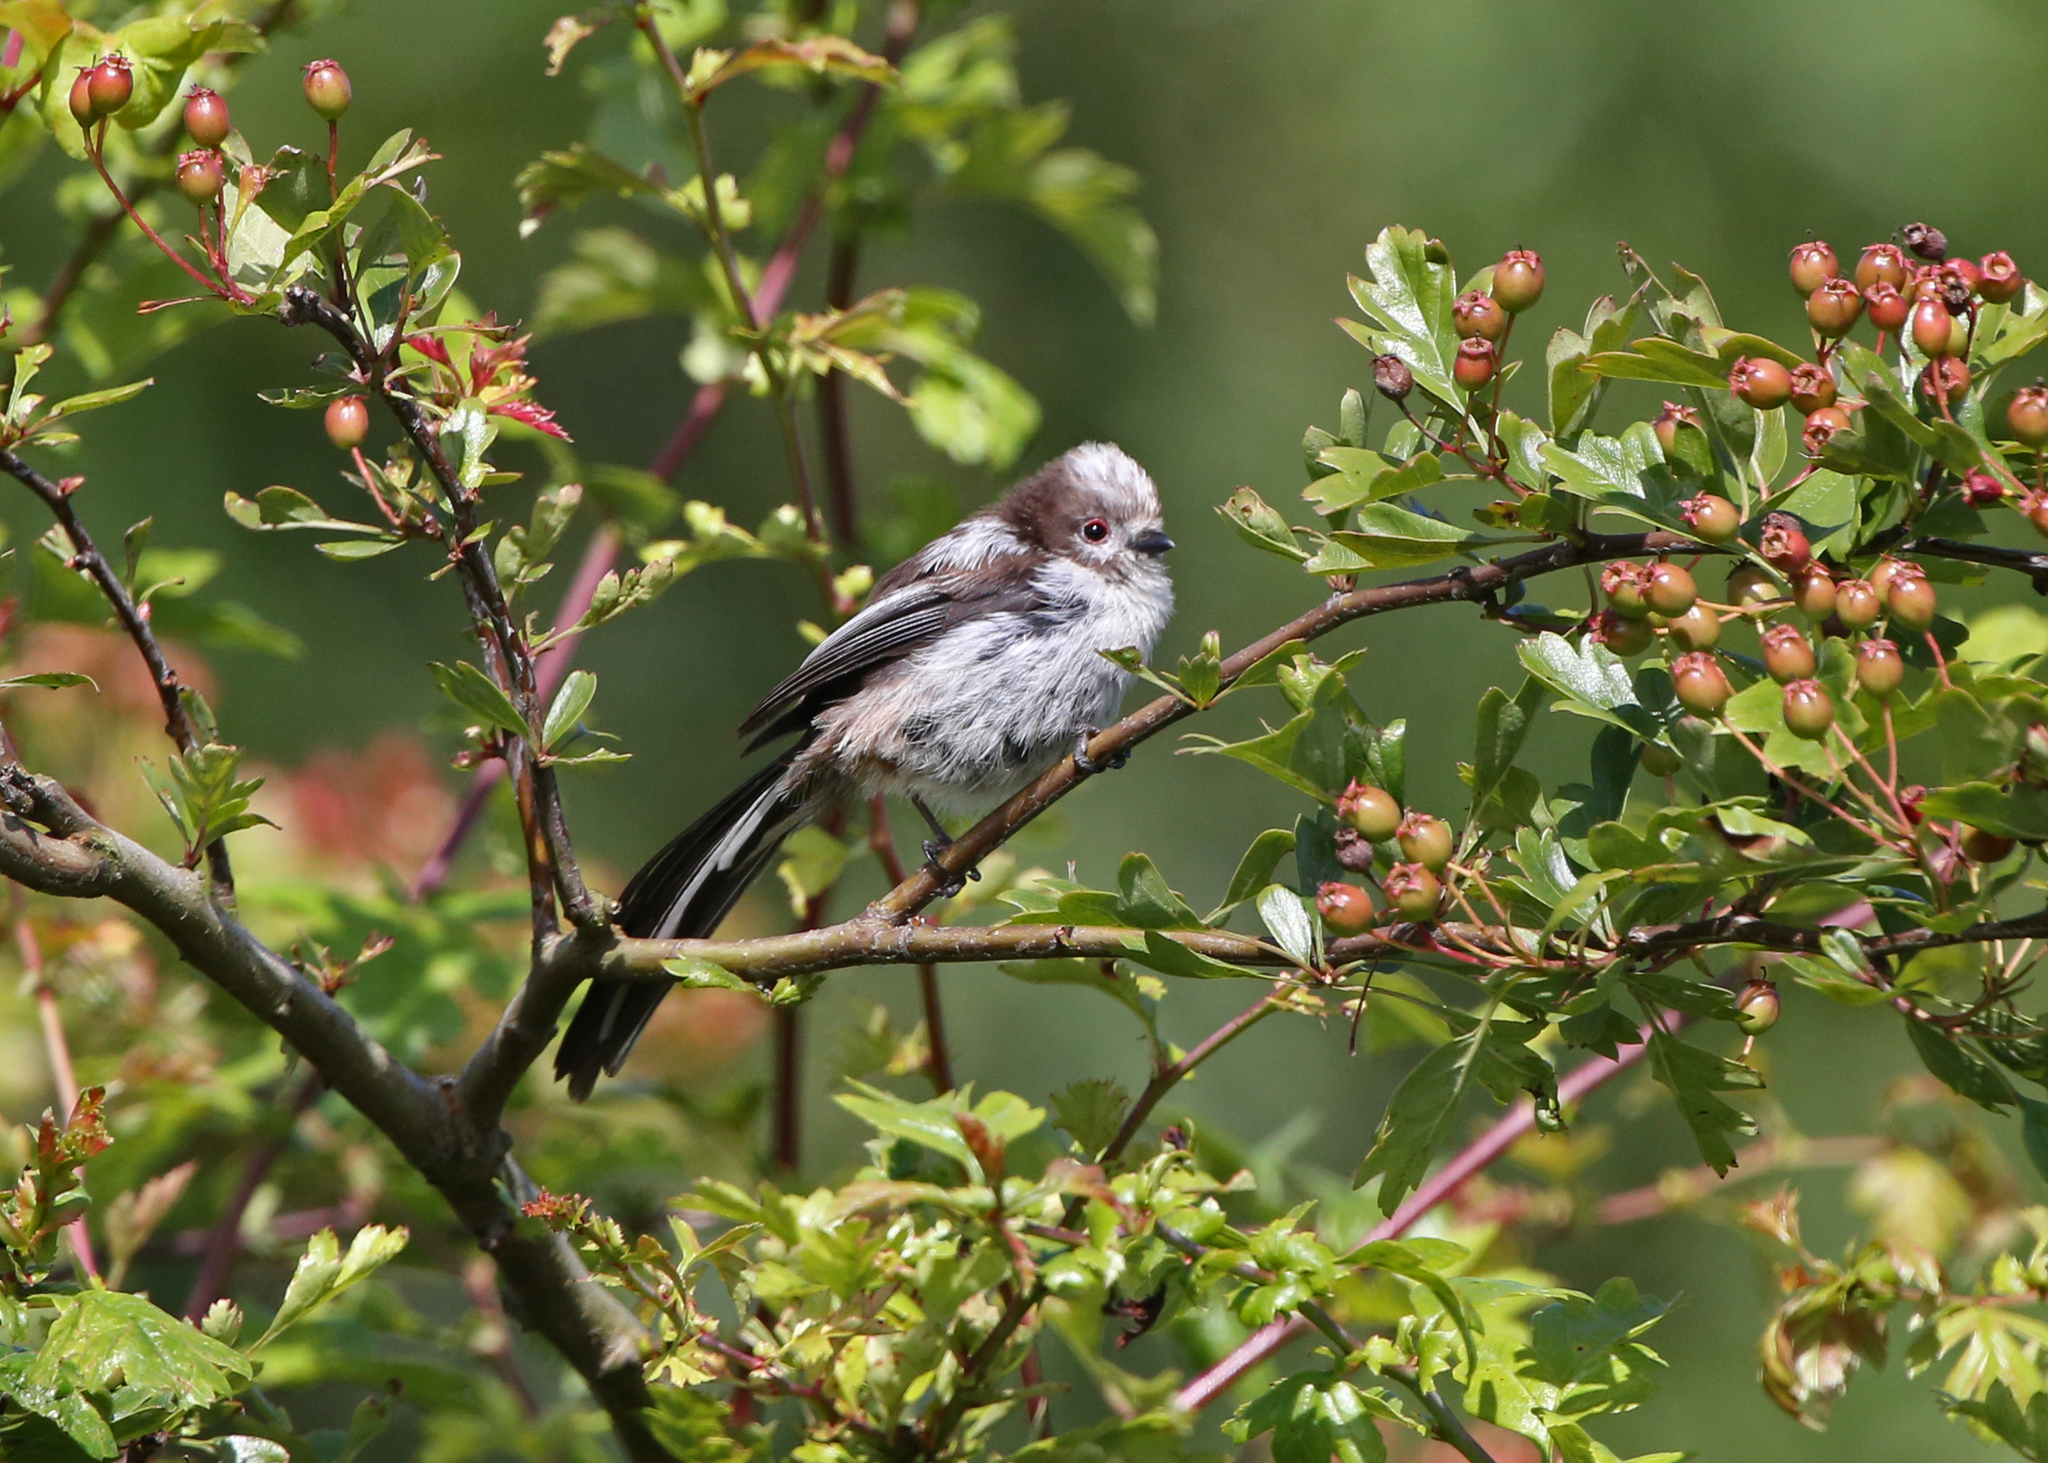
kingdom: Animalia
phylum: Chordata
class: Aves
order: Passeriformes
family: Aegithalidae
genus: Aegithalos
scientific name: Aegithalos caudatus
